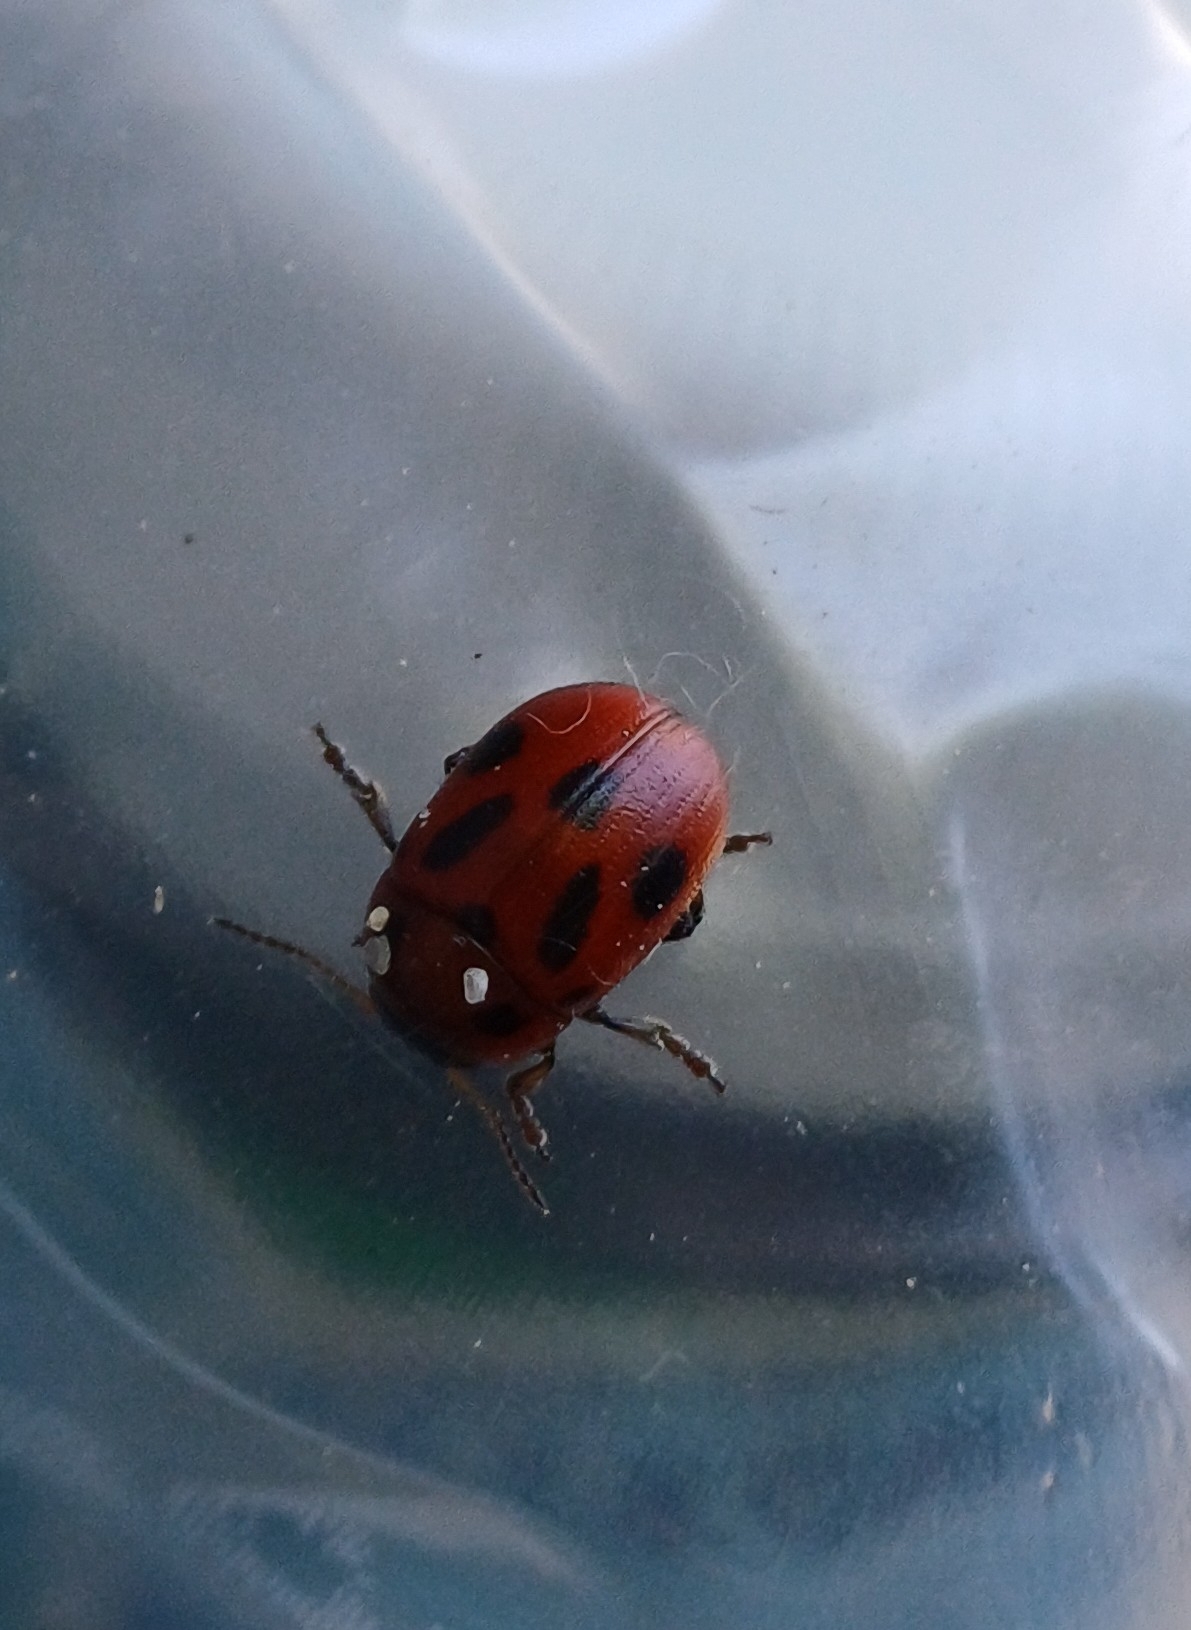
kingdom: Animalia
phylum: Arthropoda
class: Insecta
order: Coleoptera
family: Chrysomelidae
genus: Gonioctena
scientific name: Gonioctena fornicata
